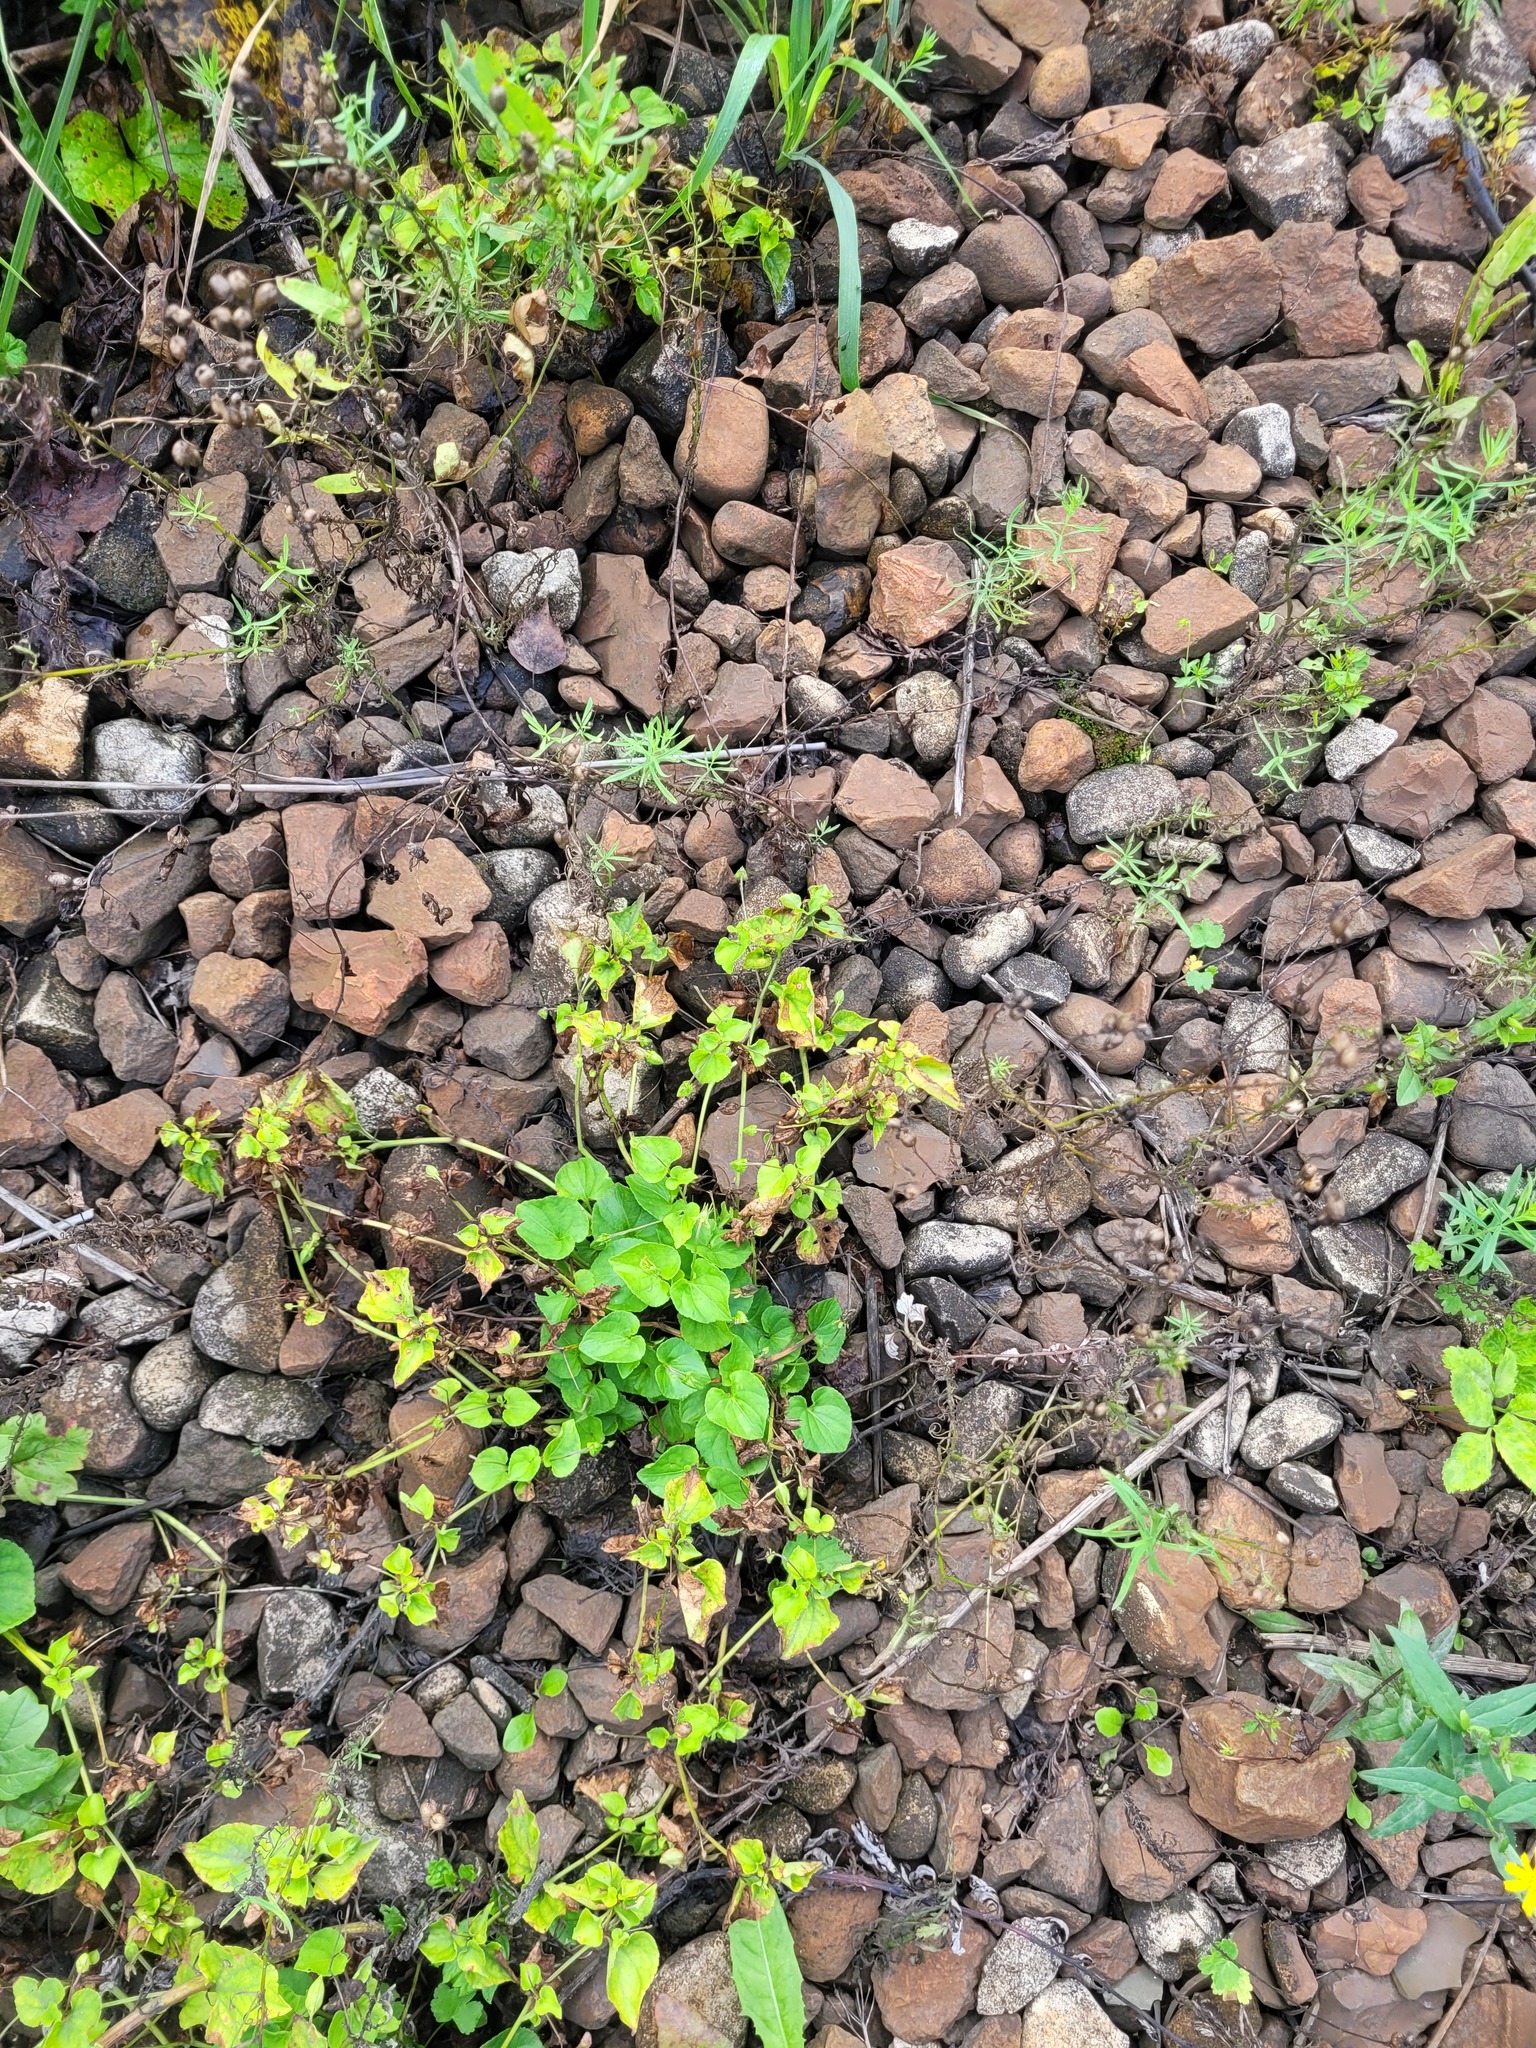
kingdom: Plantae
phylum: Tracheophyta
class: Magnoliopsida
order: Malpighiales
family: Violaceae
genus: Viola
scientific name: Viola riviniana
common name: Common dog-violet
